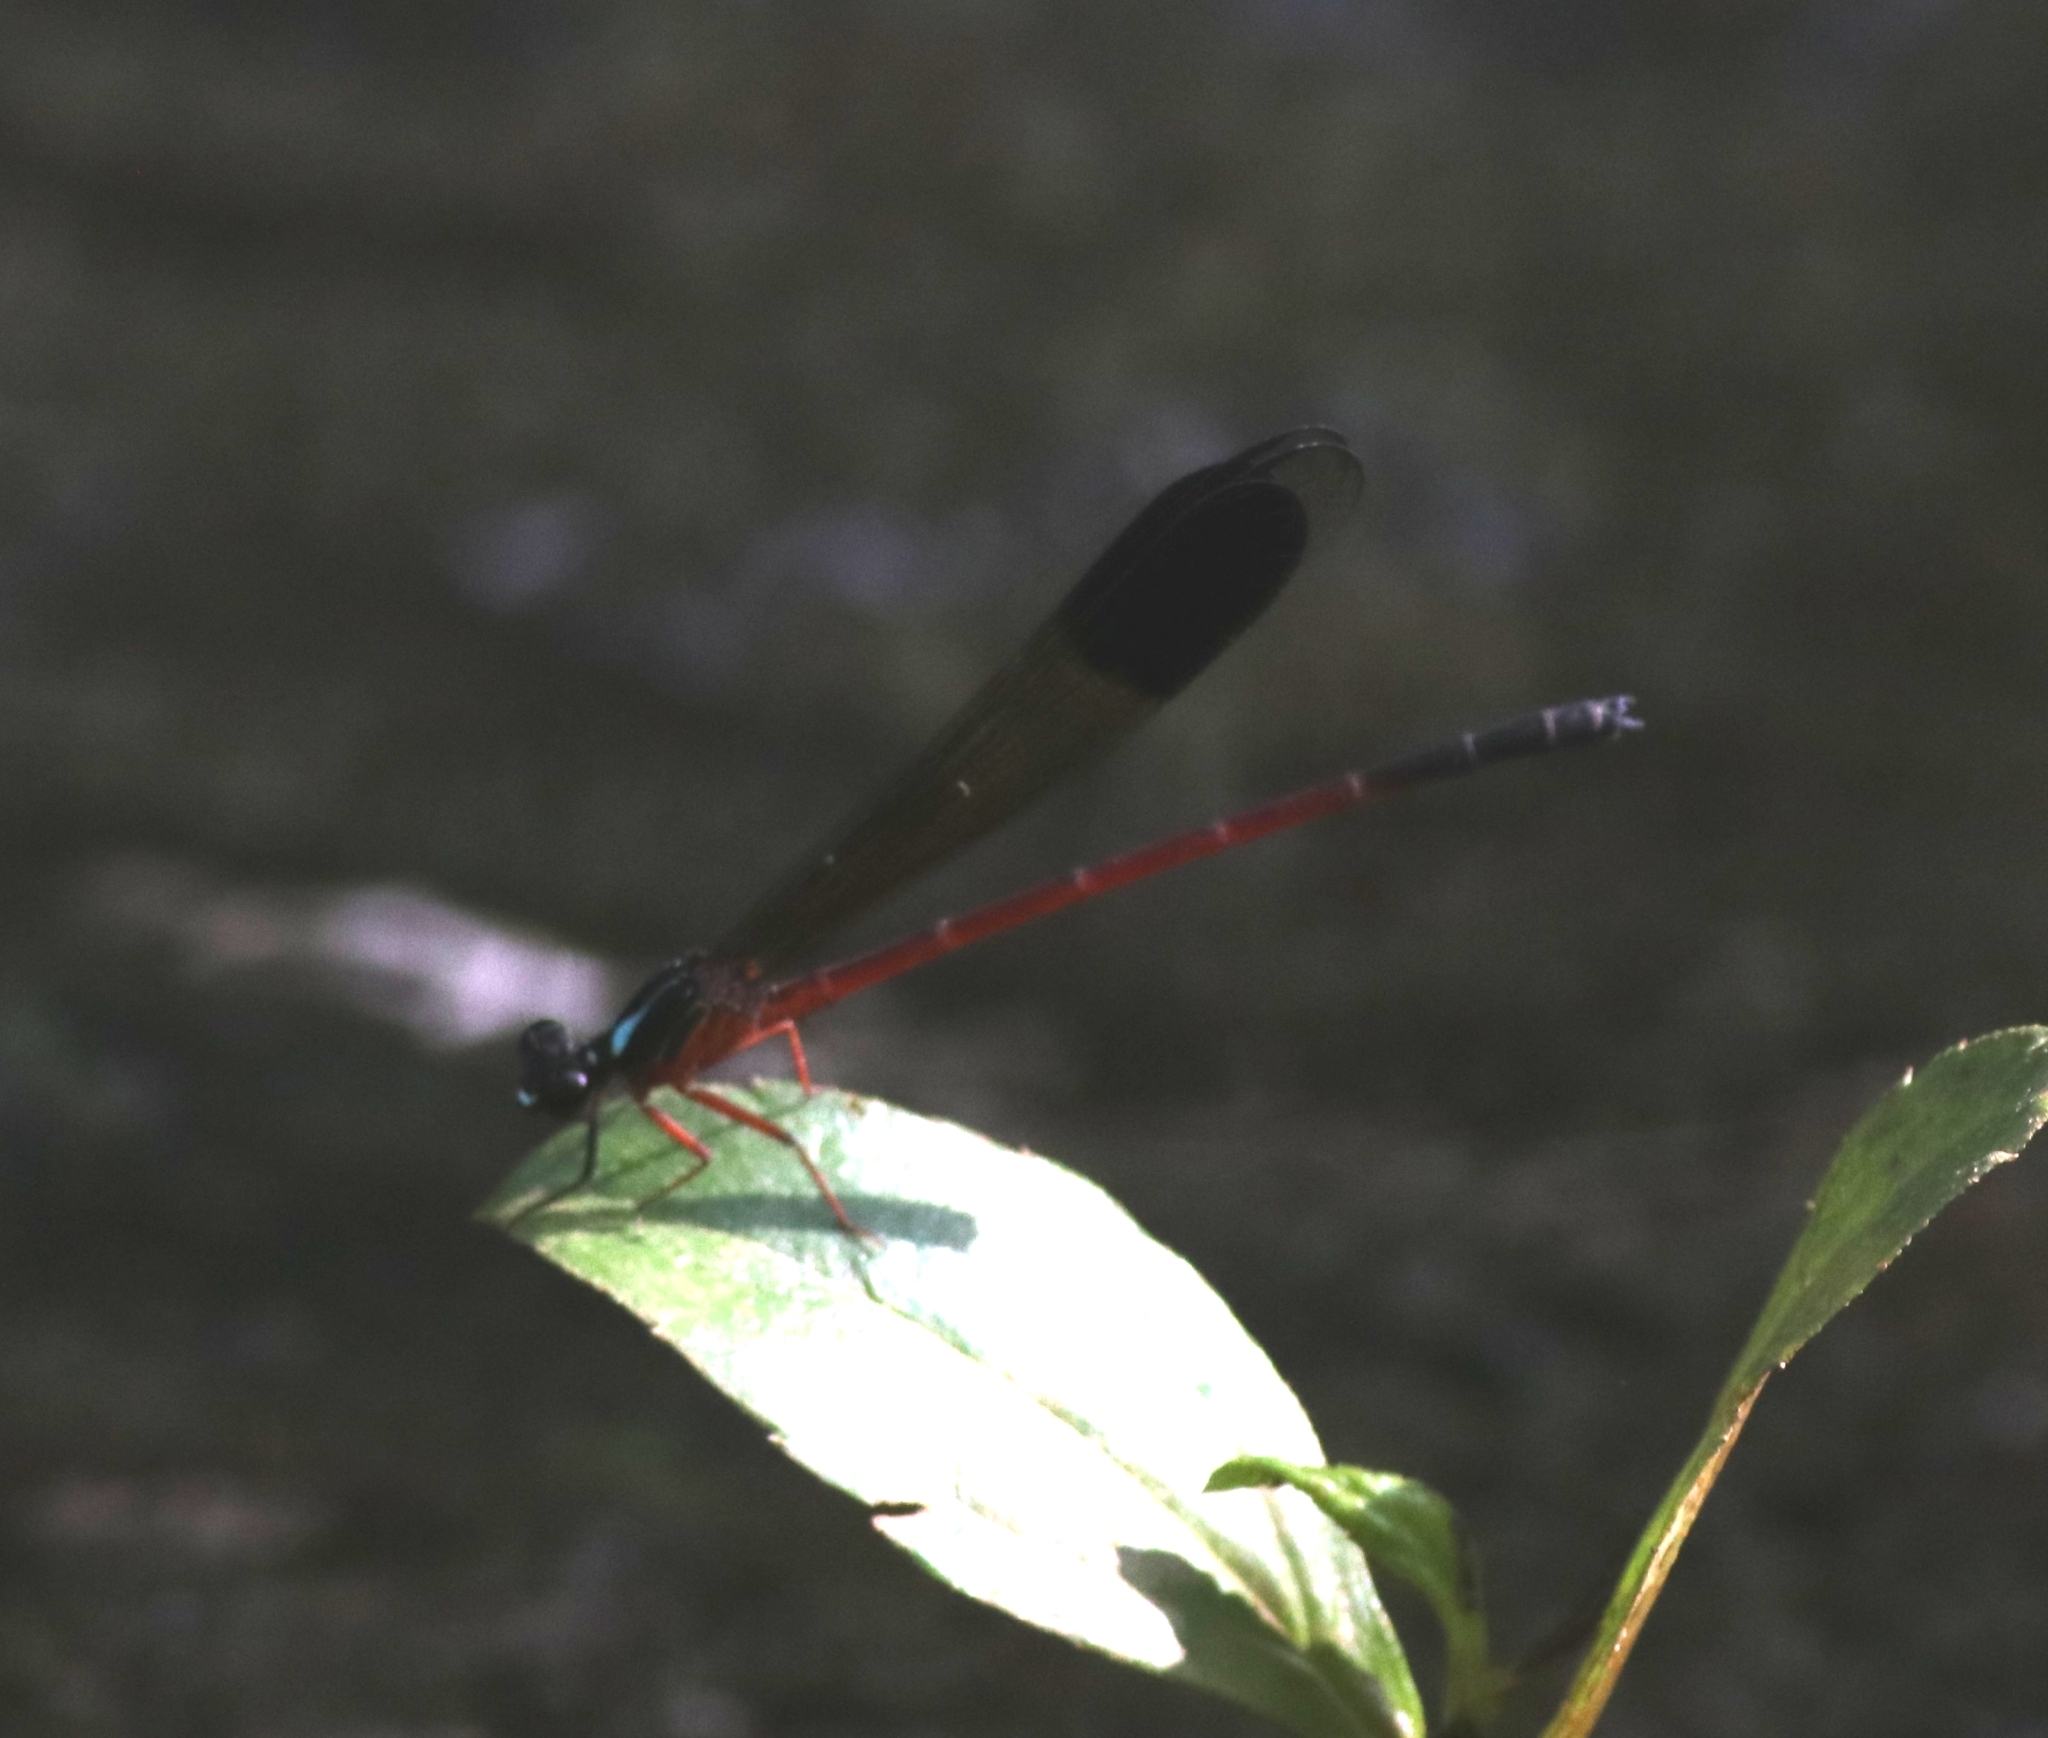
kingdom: Animalia
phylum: Arthropoda
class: Insecta
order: Odonata
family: Euphaeidae
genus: Euphaea
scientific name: Euphaea fraseri
